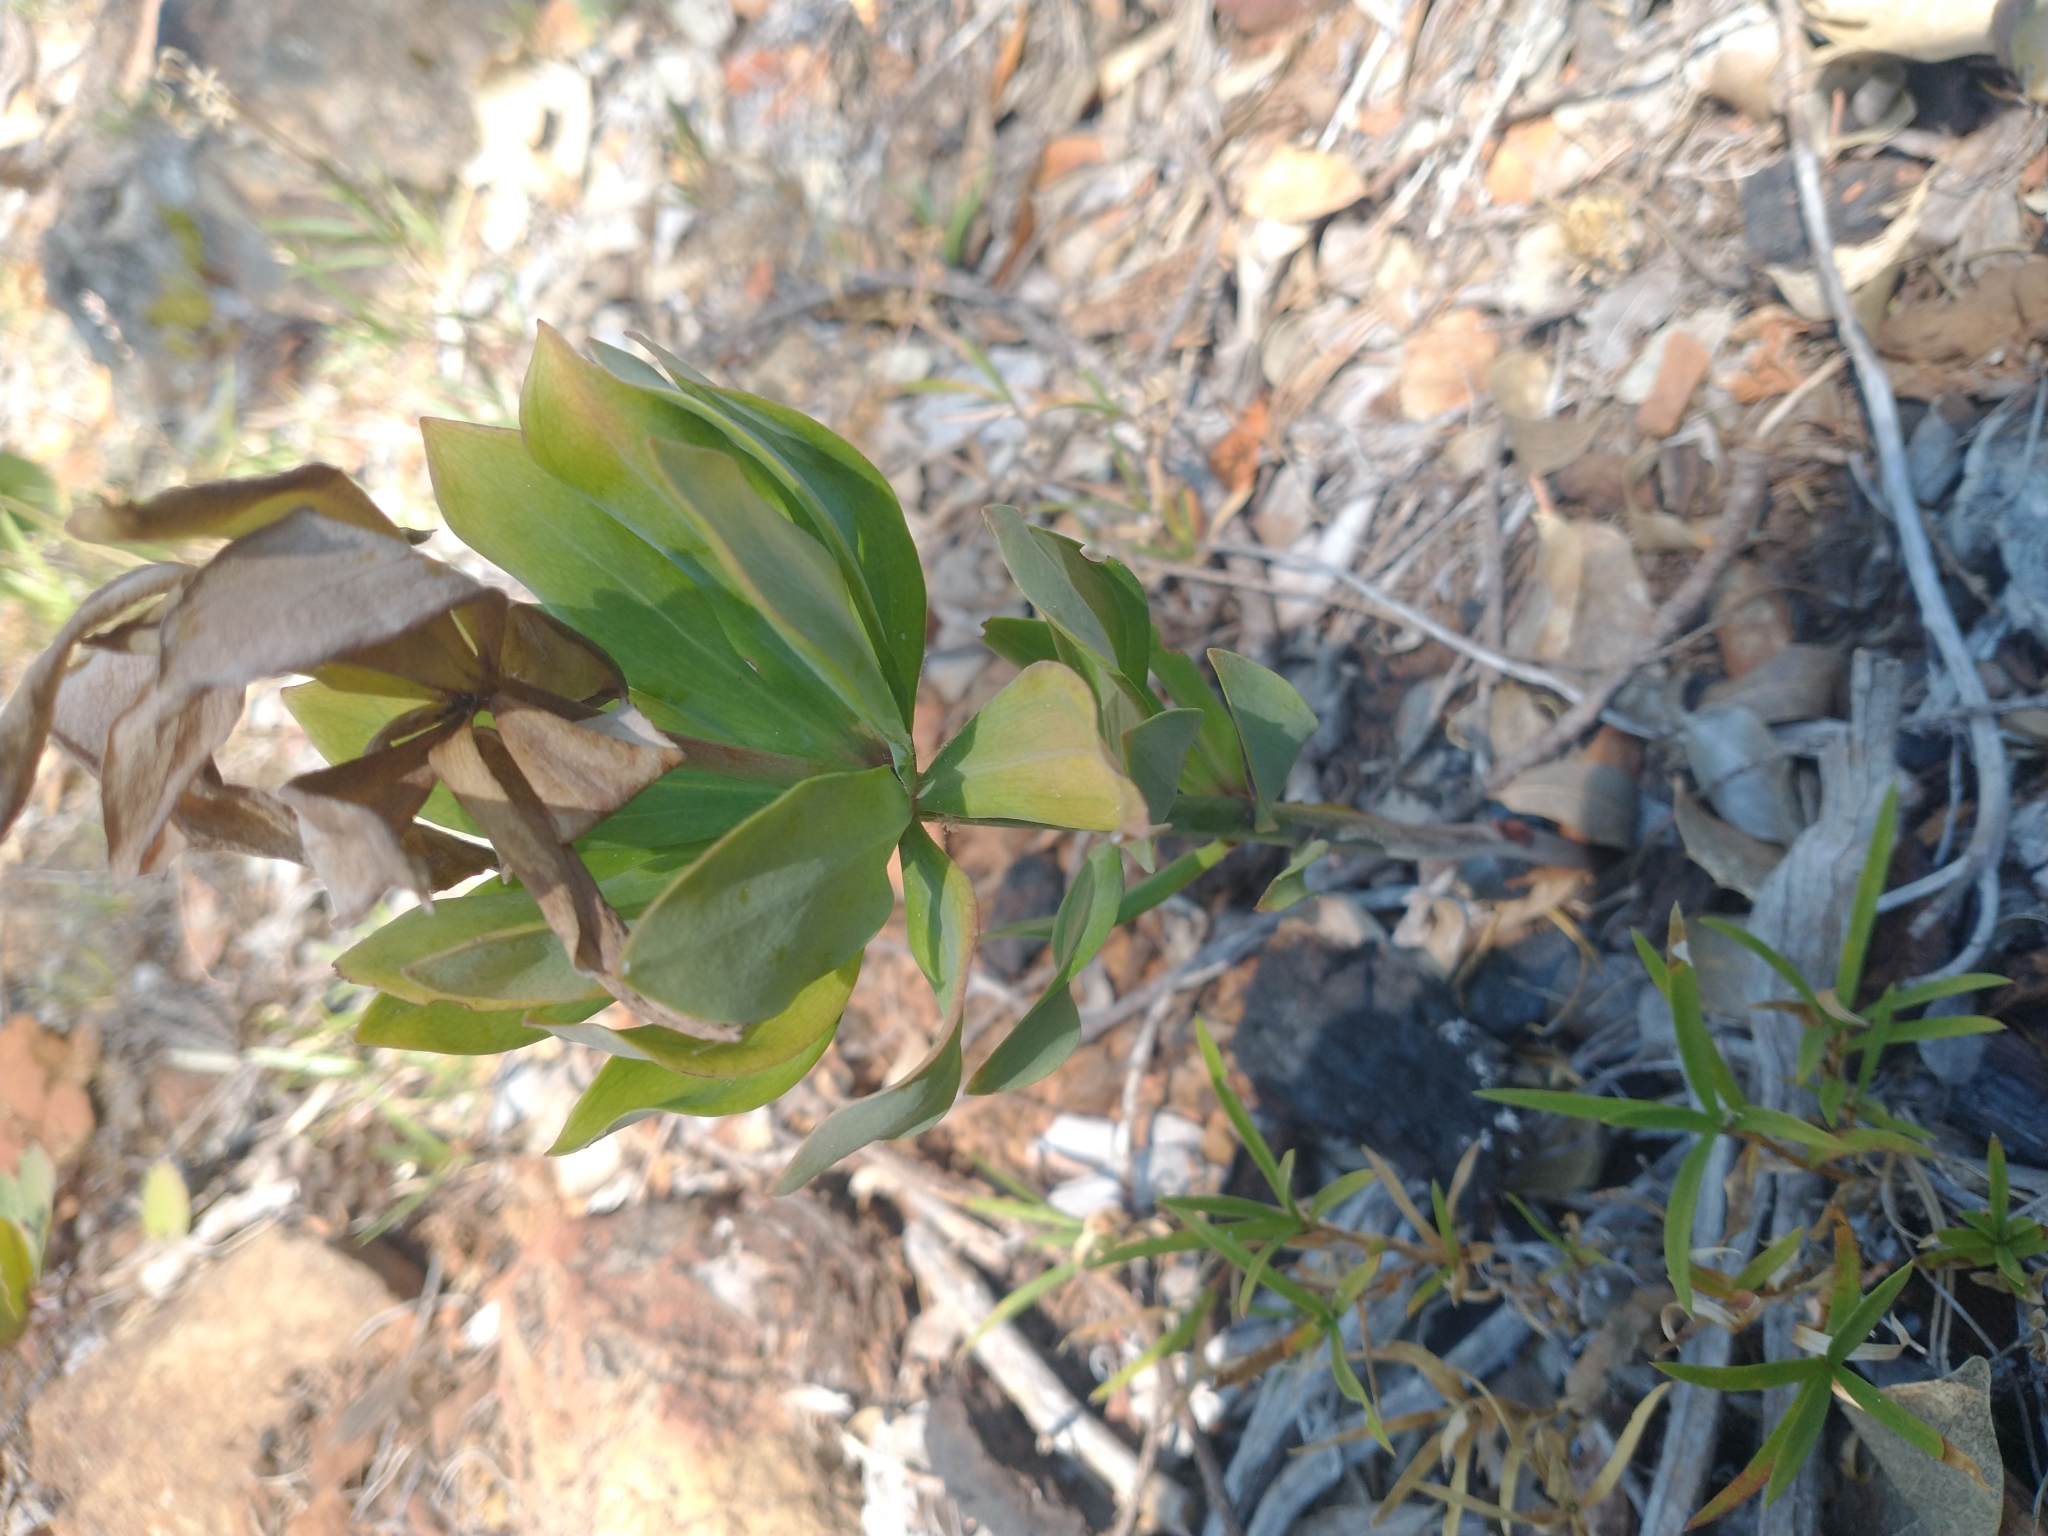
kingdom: Plantae
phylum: Tracheophyta
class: Liliopsida
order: Liliales
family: Liliaceae
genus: Lilium
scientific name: Lilium bolanderi
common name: Bolander's lily
